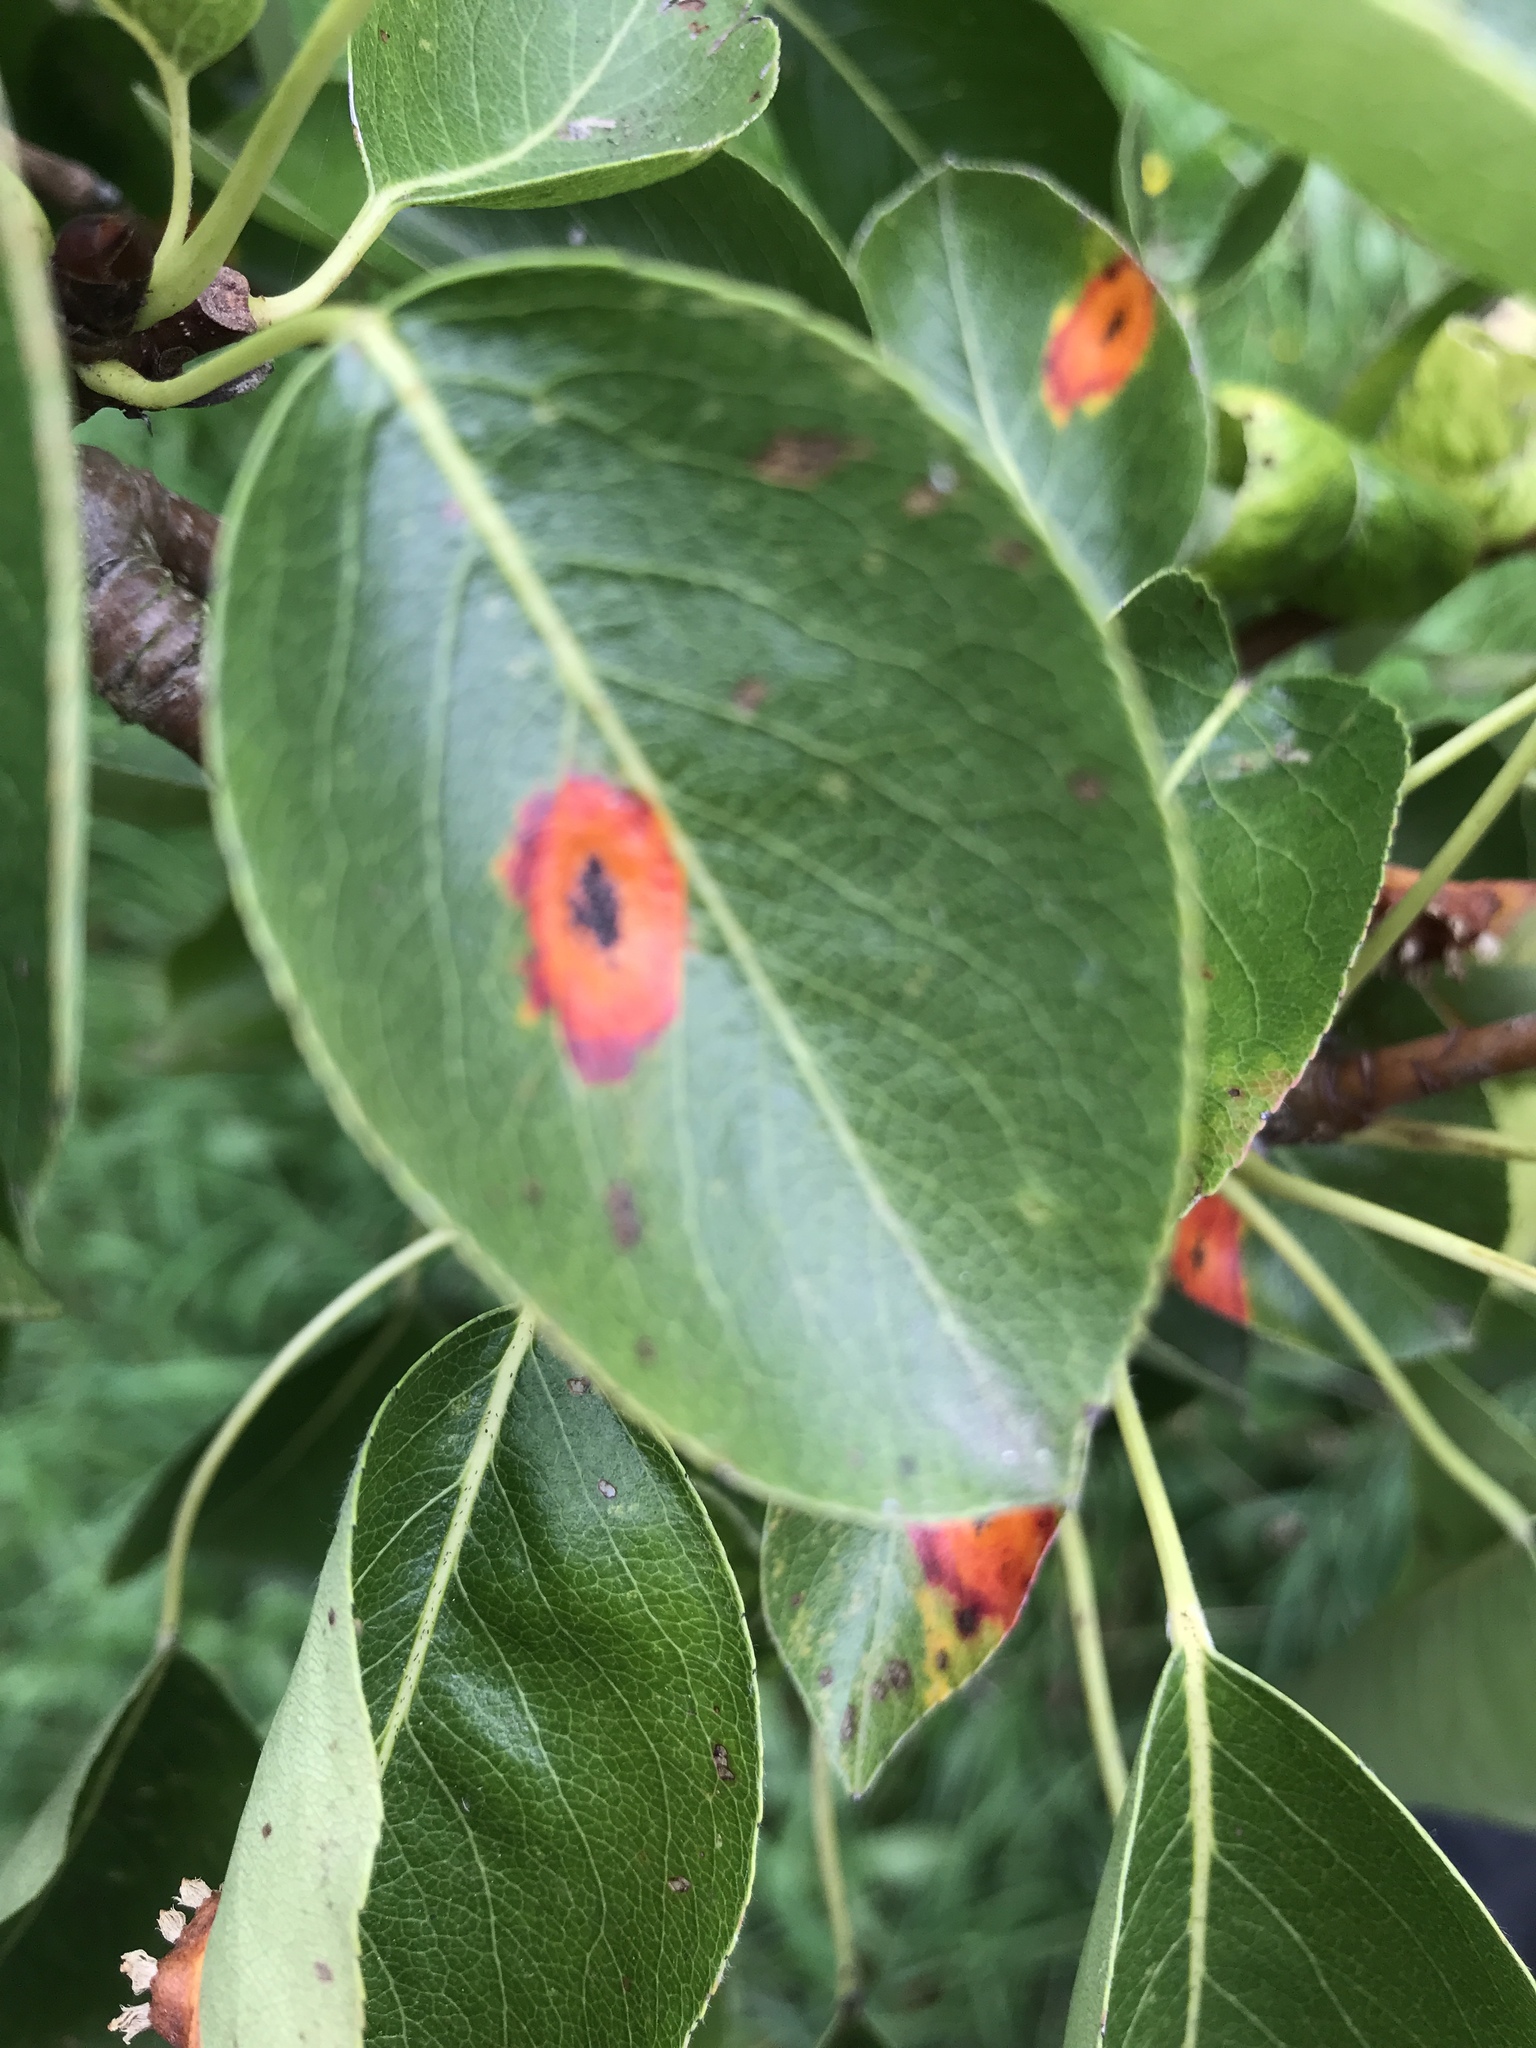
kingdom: Fungi
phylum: Basidiomycota
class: Pucciniomycetes
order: Pucciniales
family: Gymnosporangiaceae
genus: Gymnosporangium
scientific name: Gymnosporangium sabinae
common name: Pear trellis rust fungus
